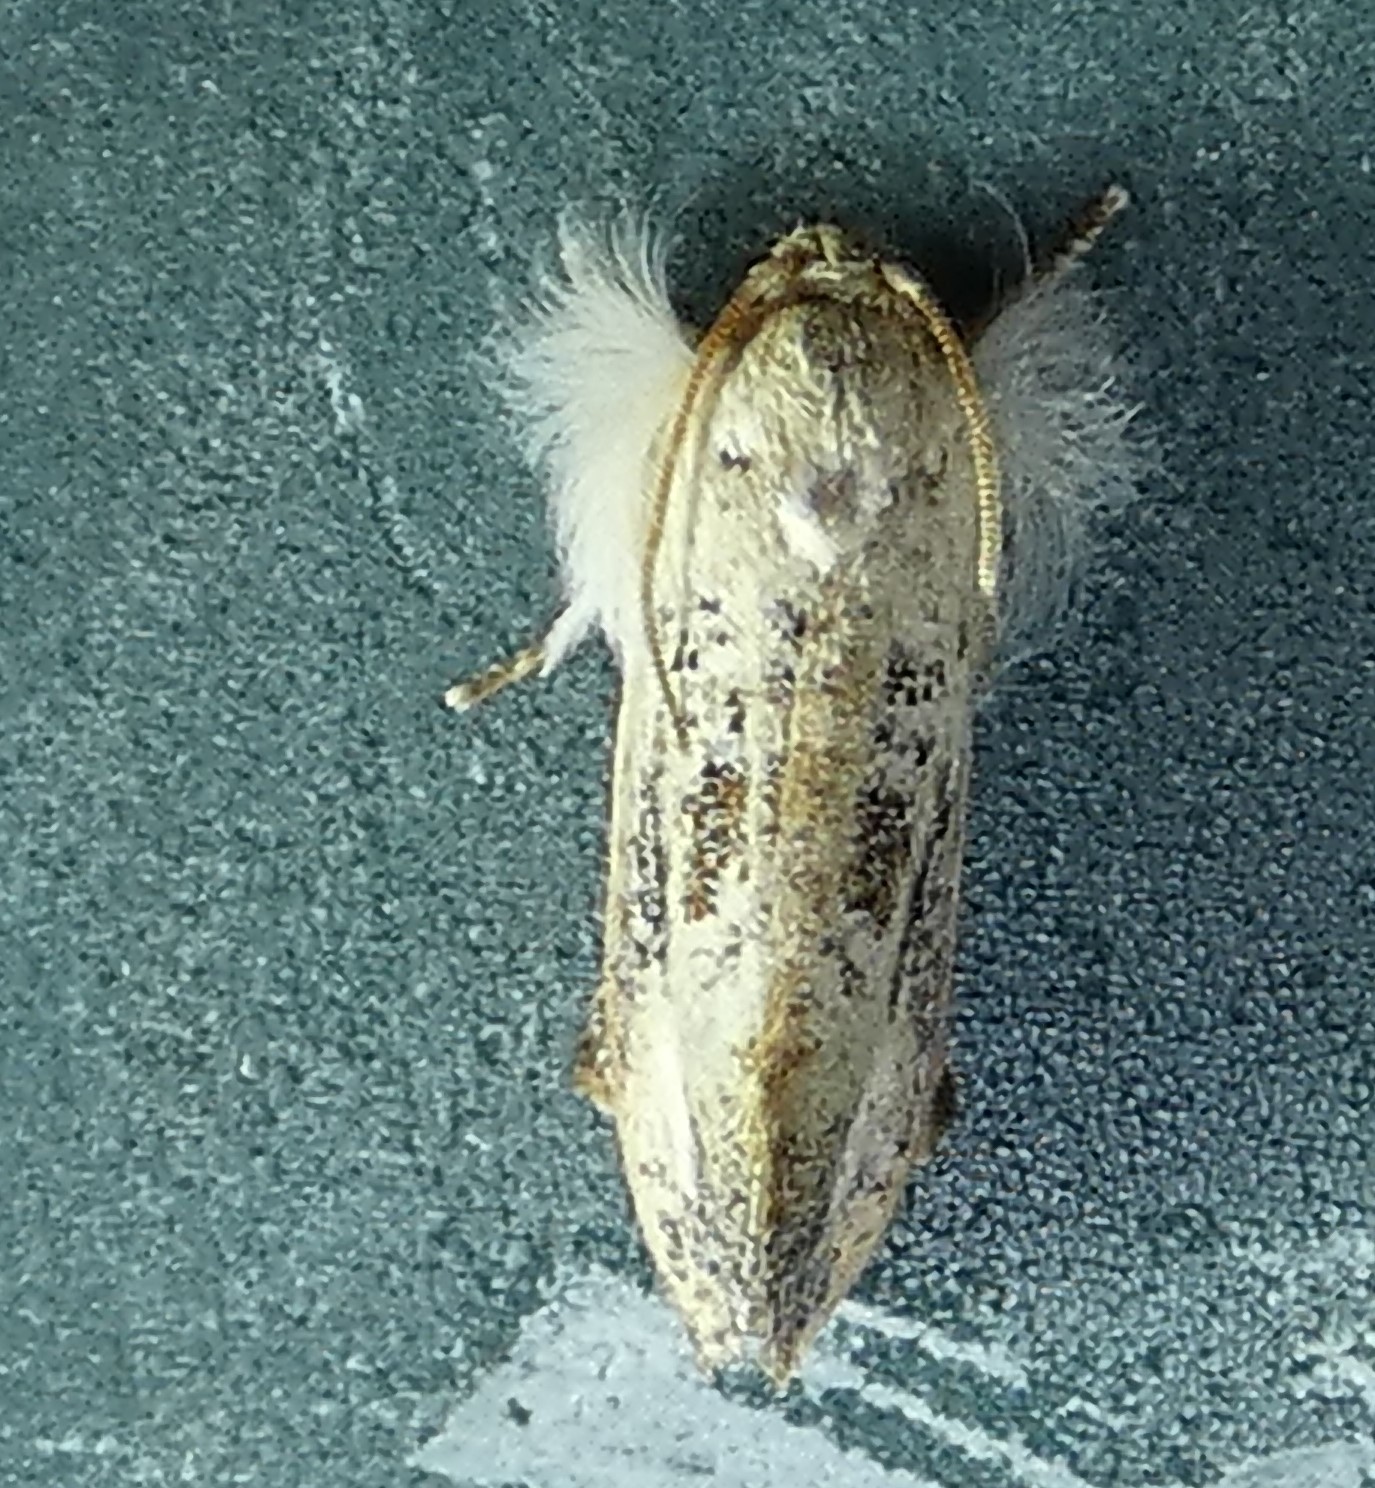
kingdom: Animalia
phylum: Arthropoda
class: Insecta
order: Lepidoptera
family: Tineidae
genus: Acrolophus
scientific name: Acrolophus mycetophagus
